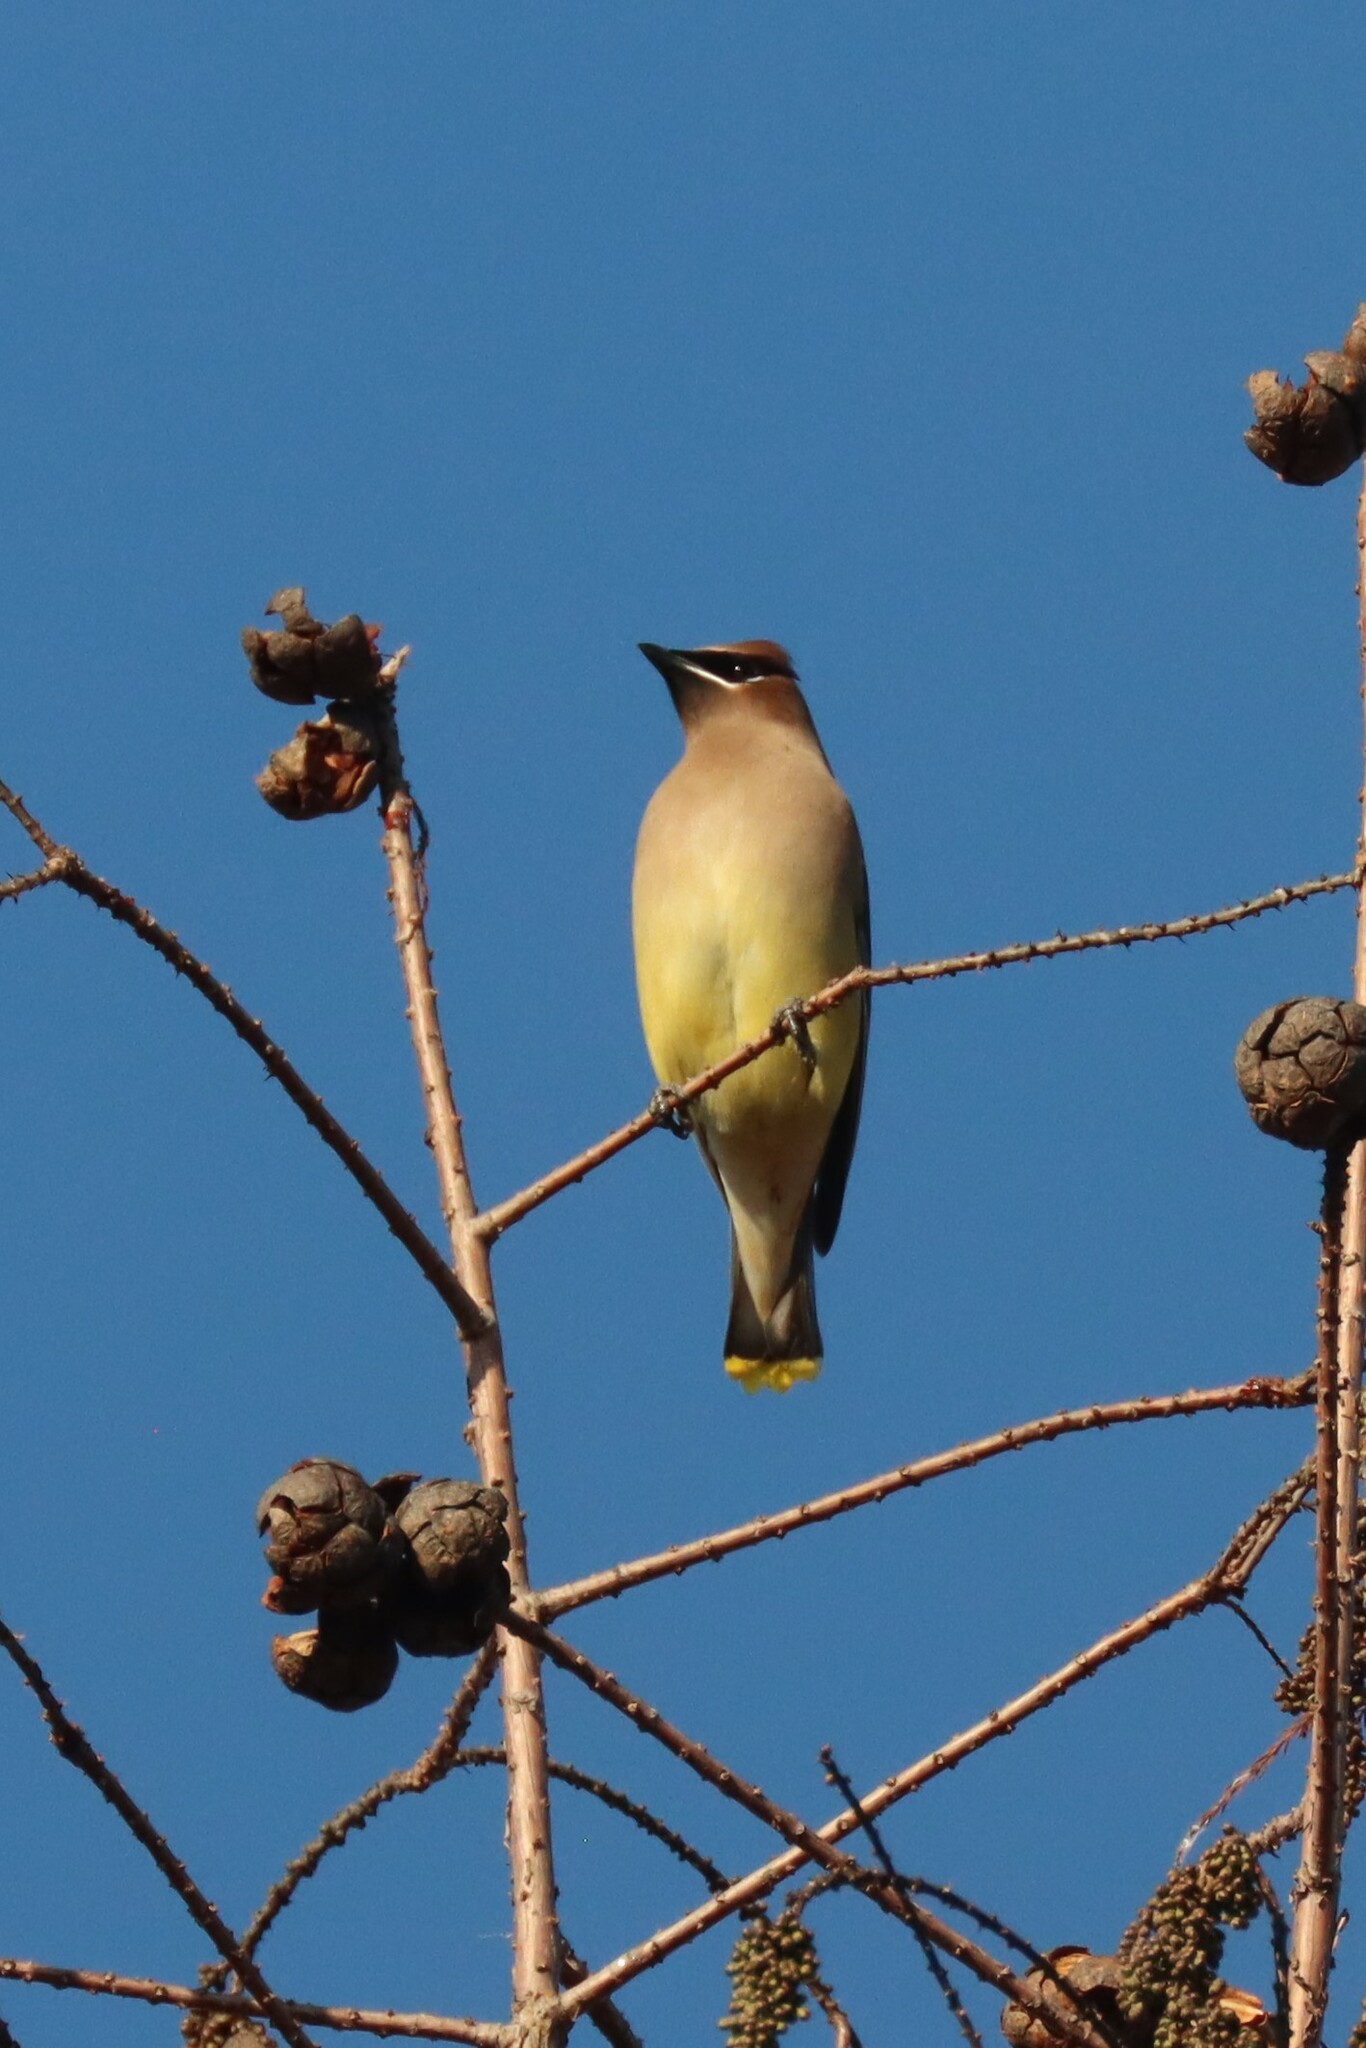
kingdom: Animalia
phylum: Chordata
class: Aves
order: Passeriformes
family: Bombycillidae
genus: Bombycilla
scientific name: Bombycilla cedrorum
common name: Cedar waxwing
